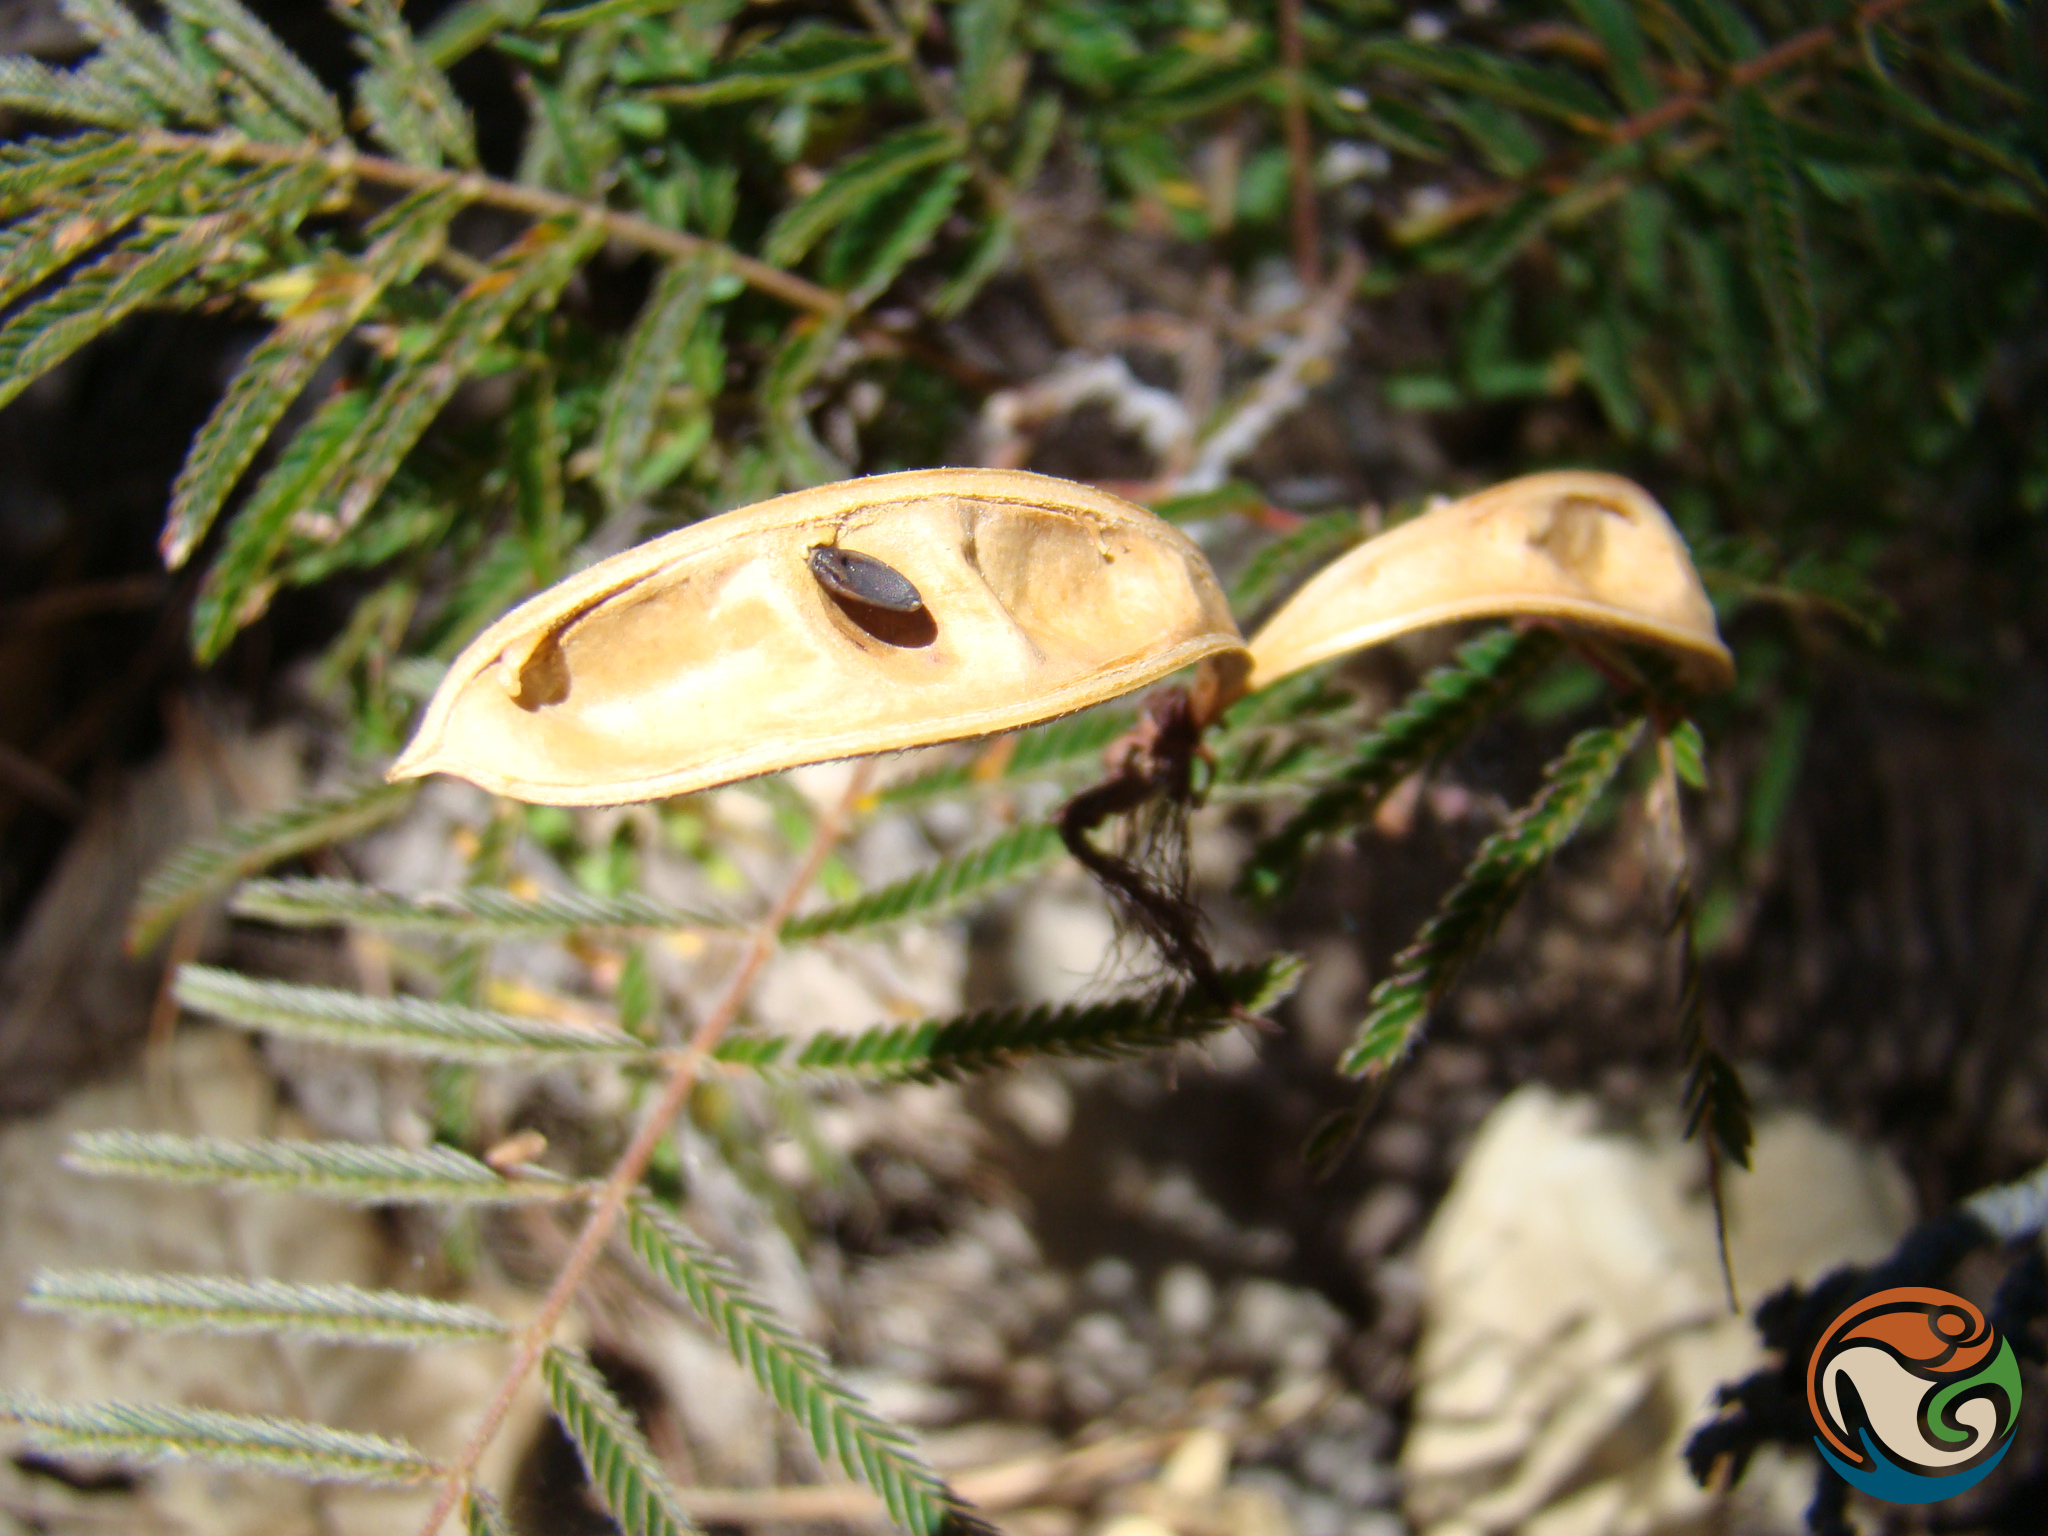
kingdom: Plantae
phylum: Tracheophyta
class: Magnoliopsida
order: Fabales
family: Fabaceae
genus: Calliandra
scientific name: Calliandra hirsuta
